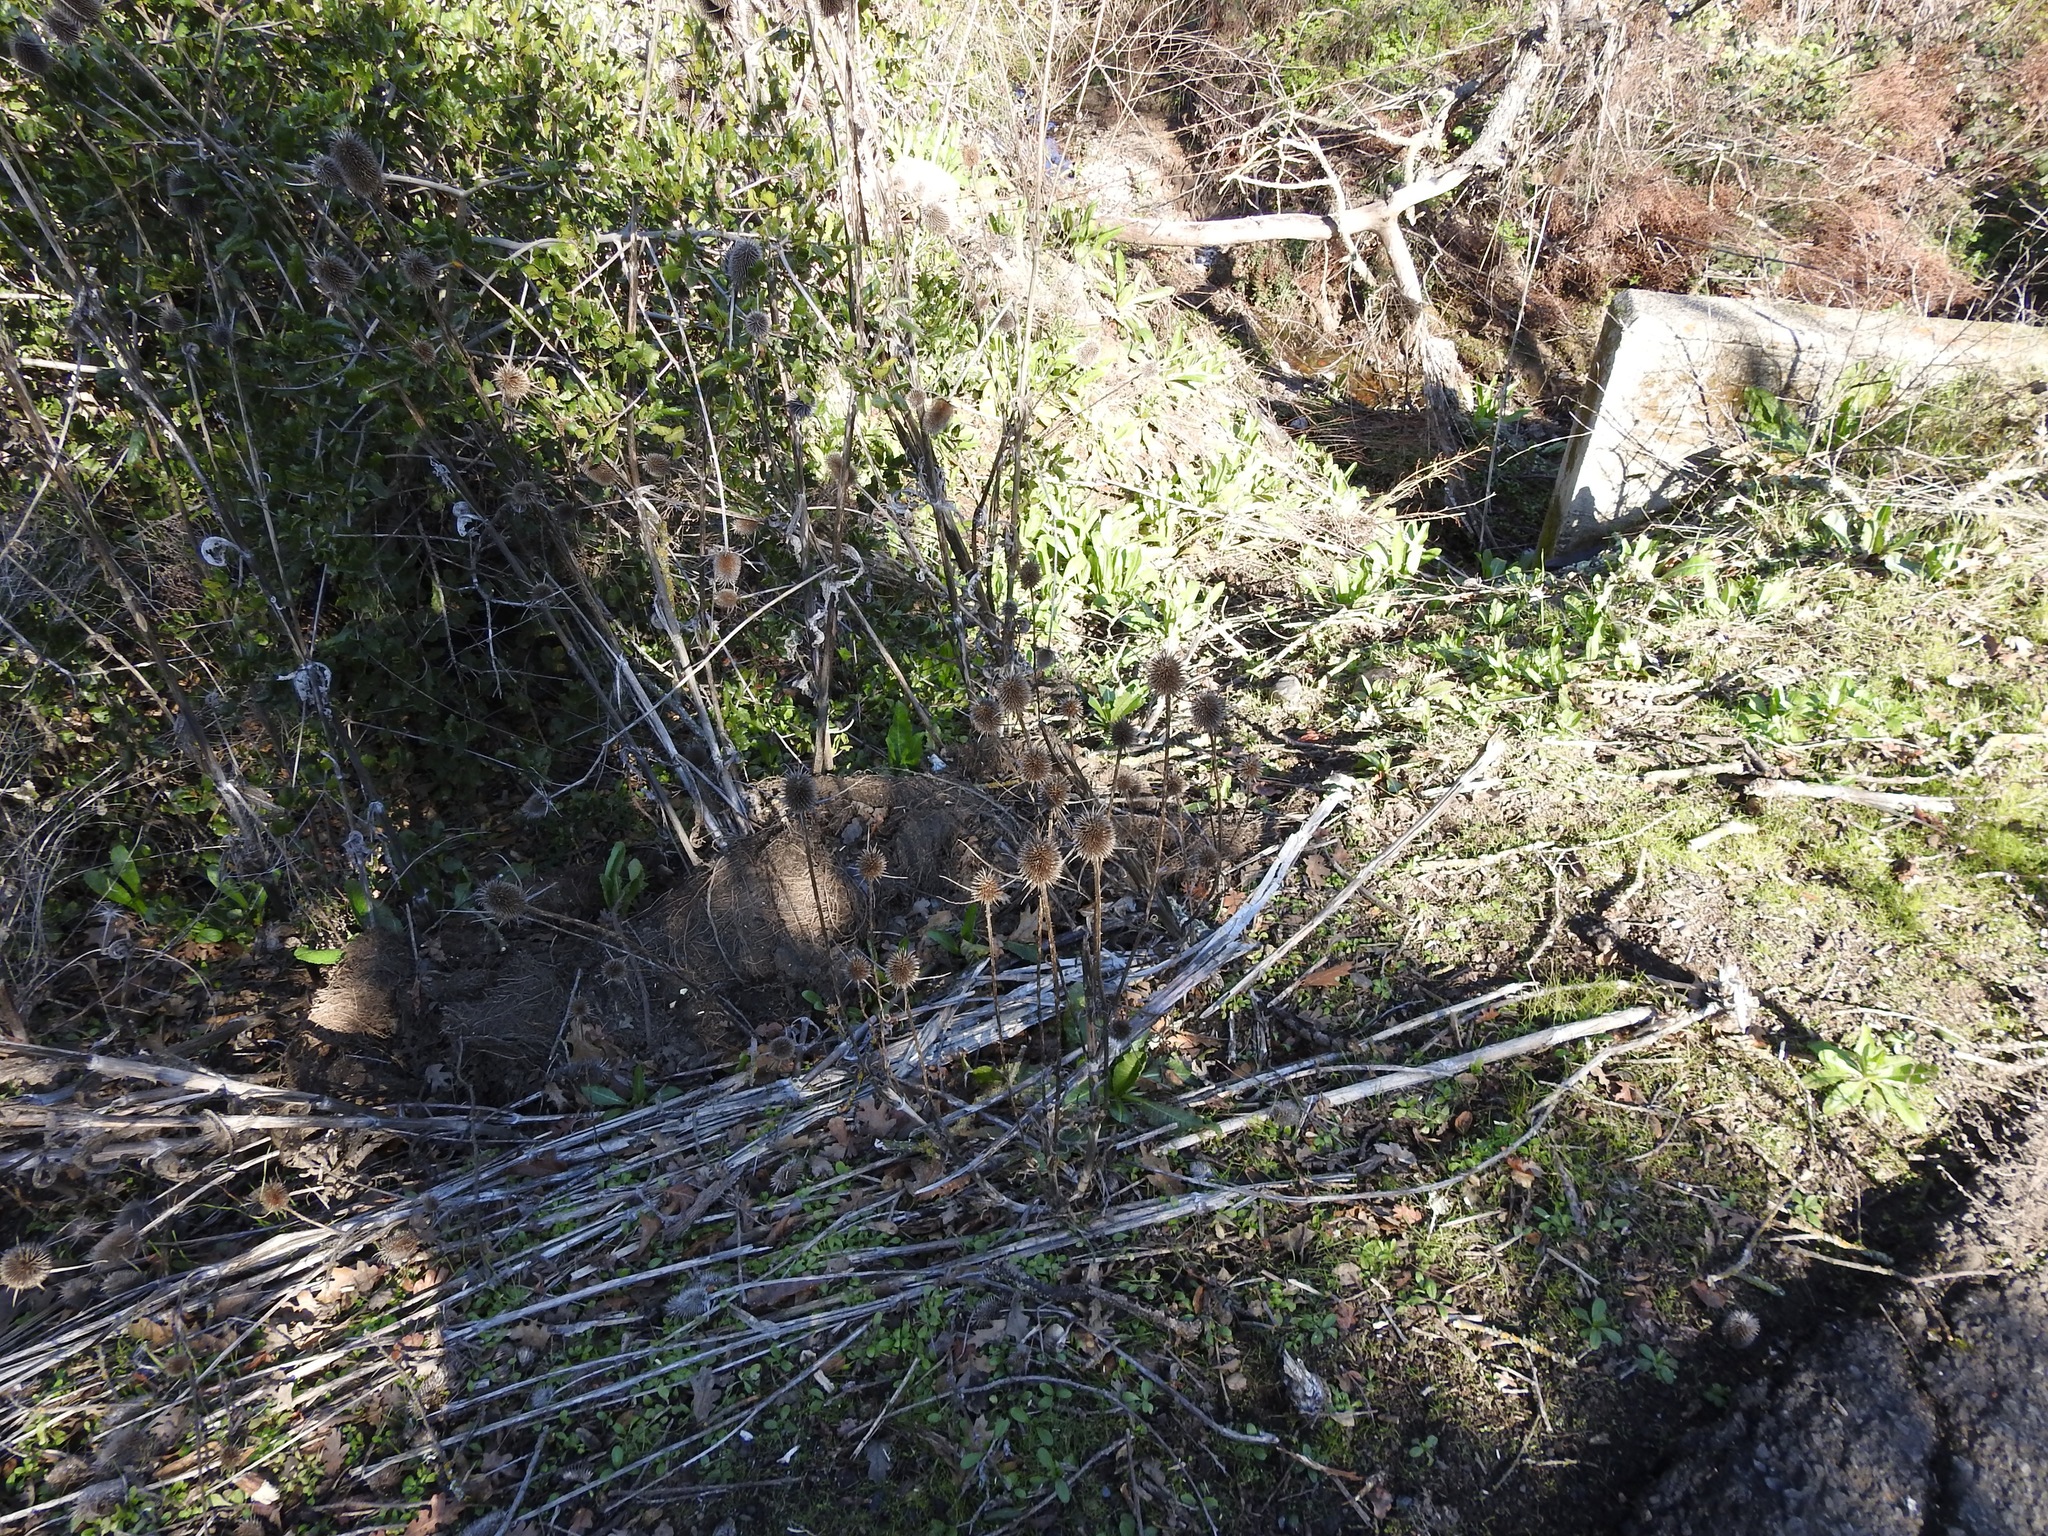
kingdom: Plantae
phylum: Tracheophyta
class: Magnoliopsida
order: Dipsacales
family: Caprifoliaceae
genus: Dipsacus
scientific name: Dipsacus sativus
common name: Fuller's teasel
